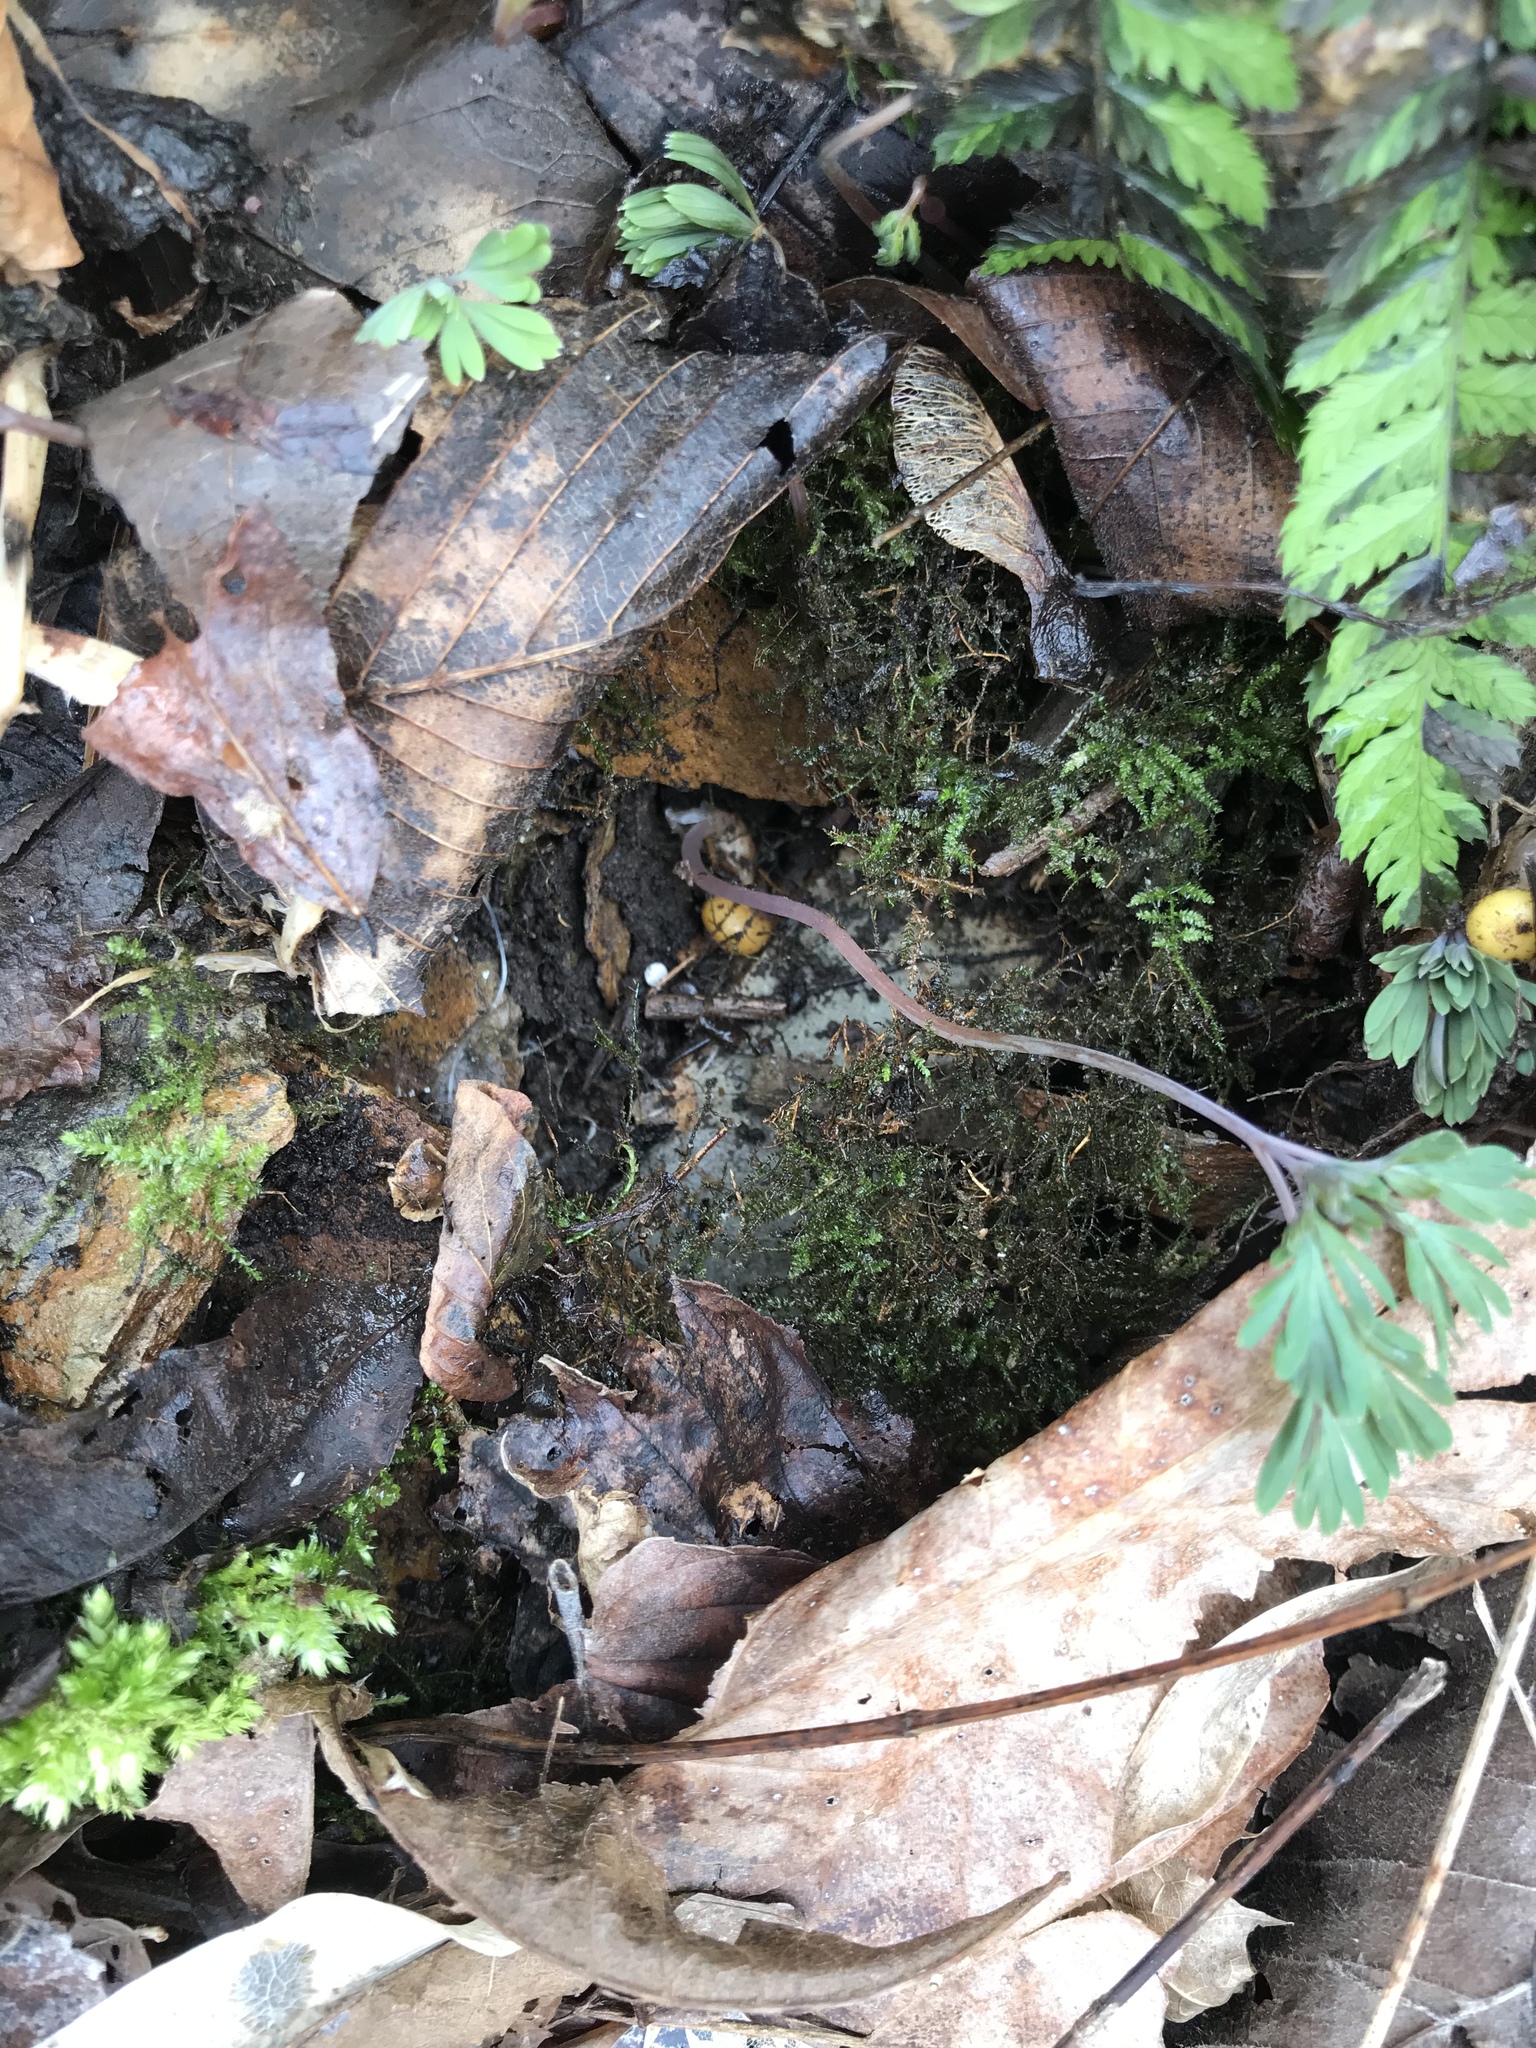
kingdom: Plantae
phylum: Tracheophyta
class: Magnoliopsida
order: Ranunculales
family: Papaveraceae
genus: Dicentra
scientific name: Dicentra canadensis
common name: Squirrel-corn
